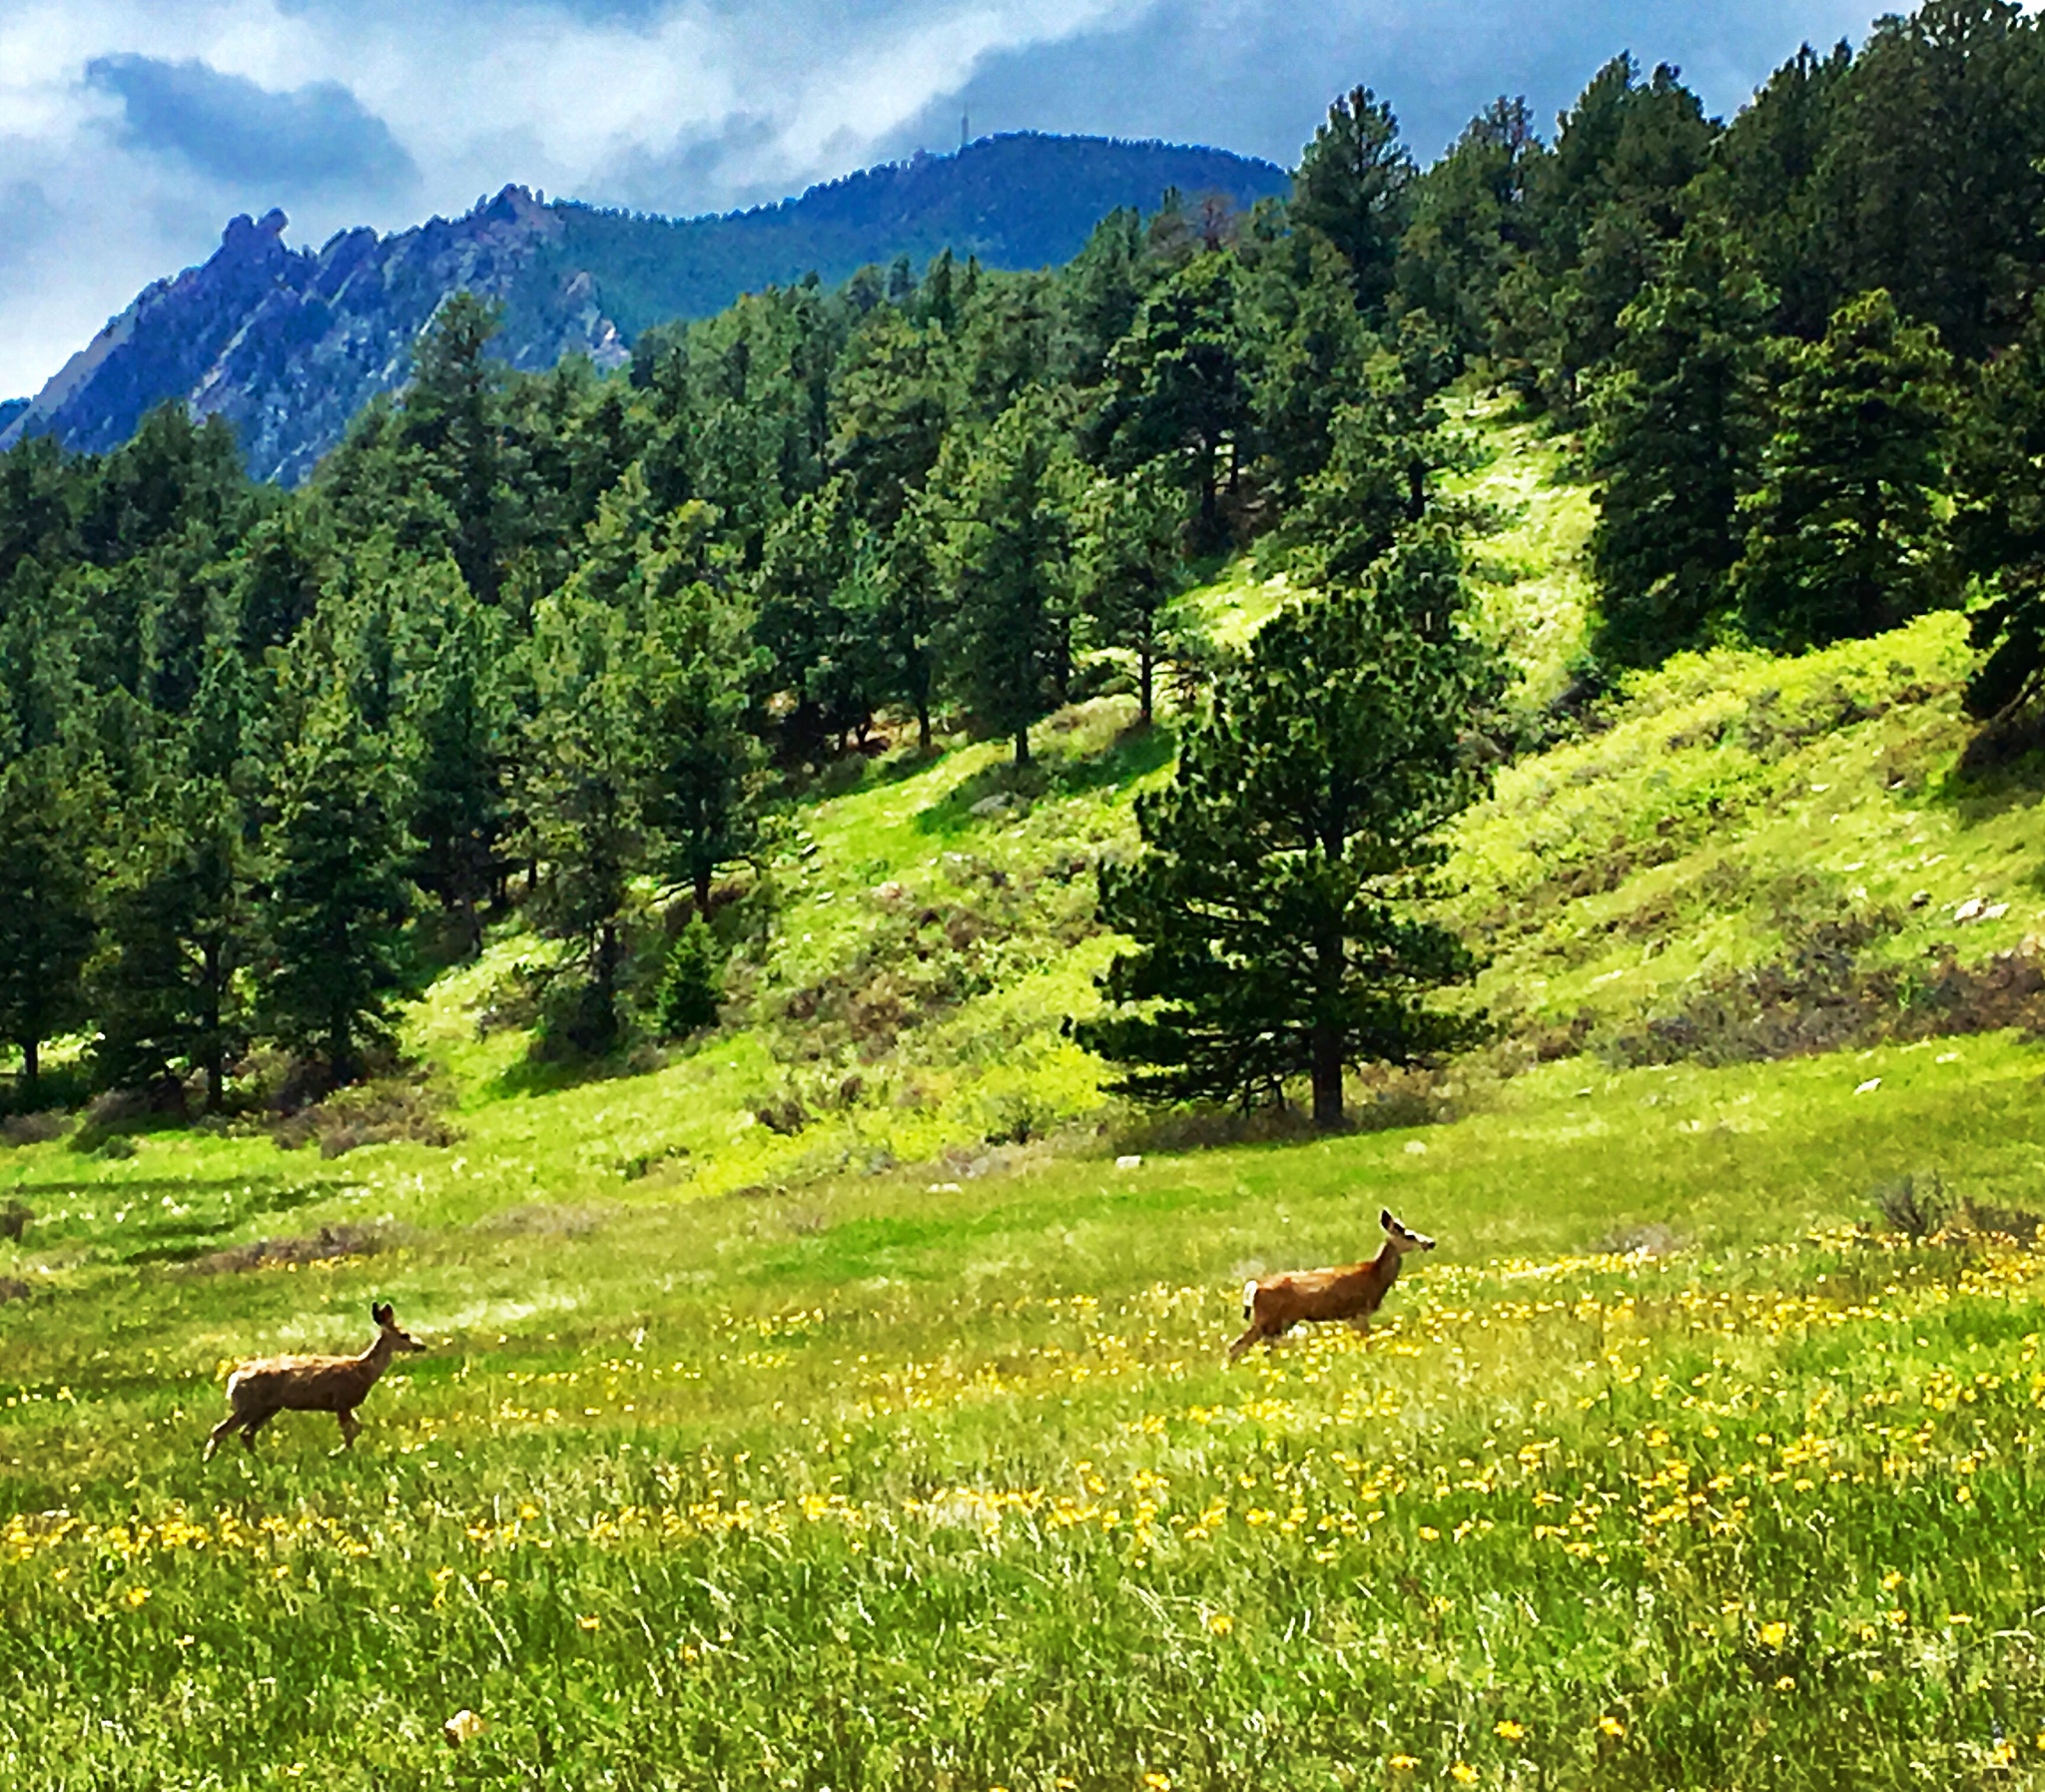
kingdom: Animalia
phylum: Chordata
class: Mammalia
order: Artiodactyla
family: Cervidae
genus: Odocoileus
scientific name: Odocoileus hemionus
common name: Mule deer
